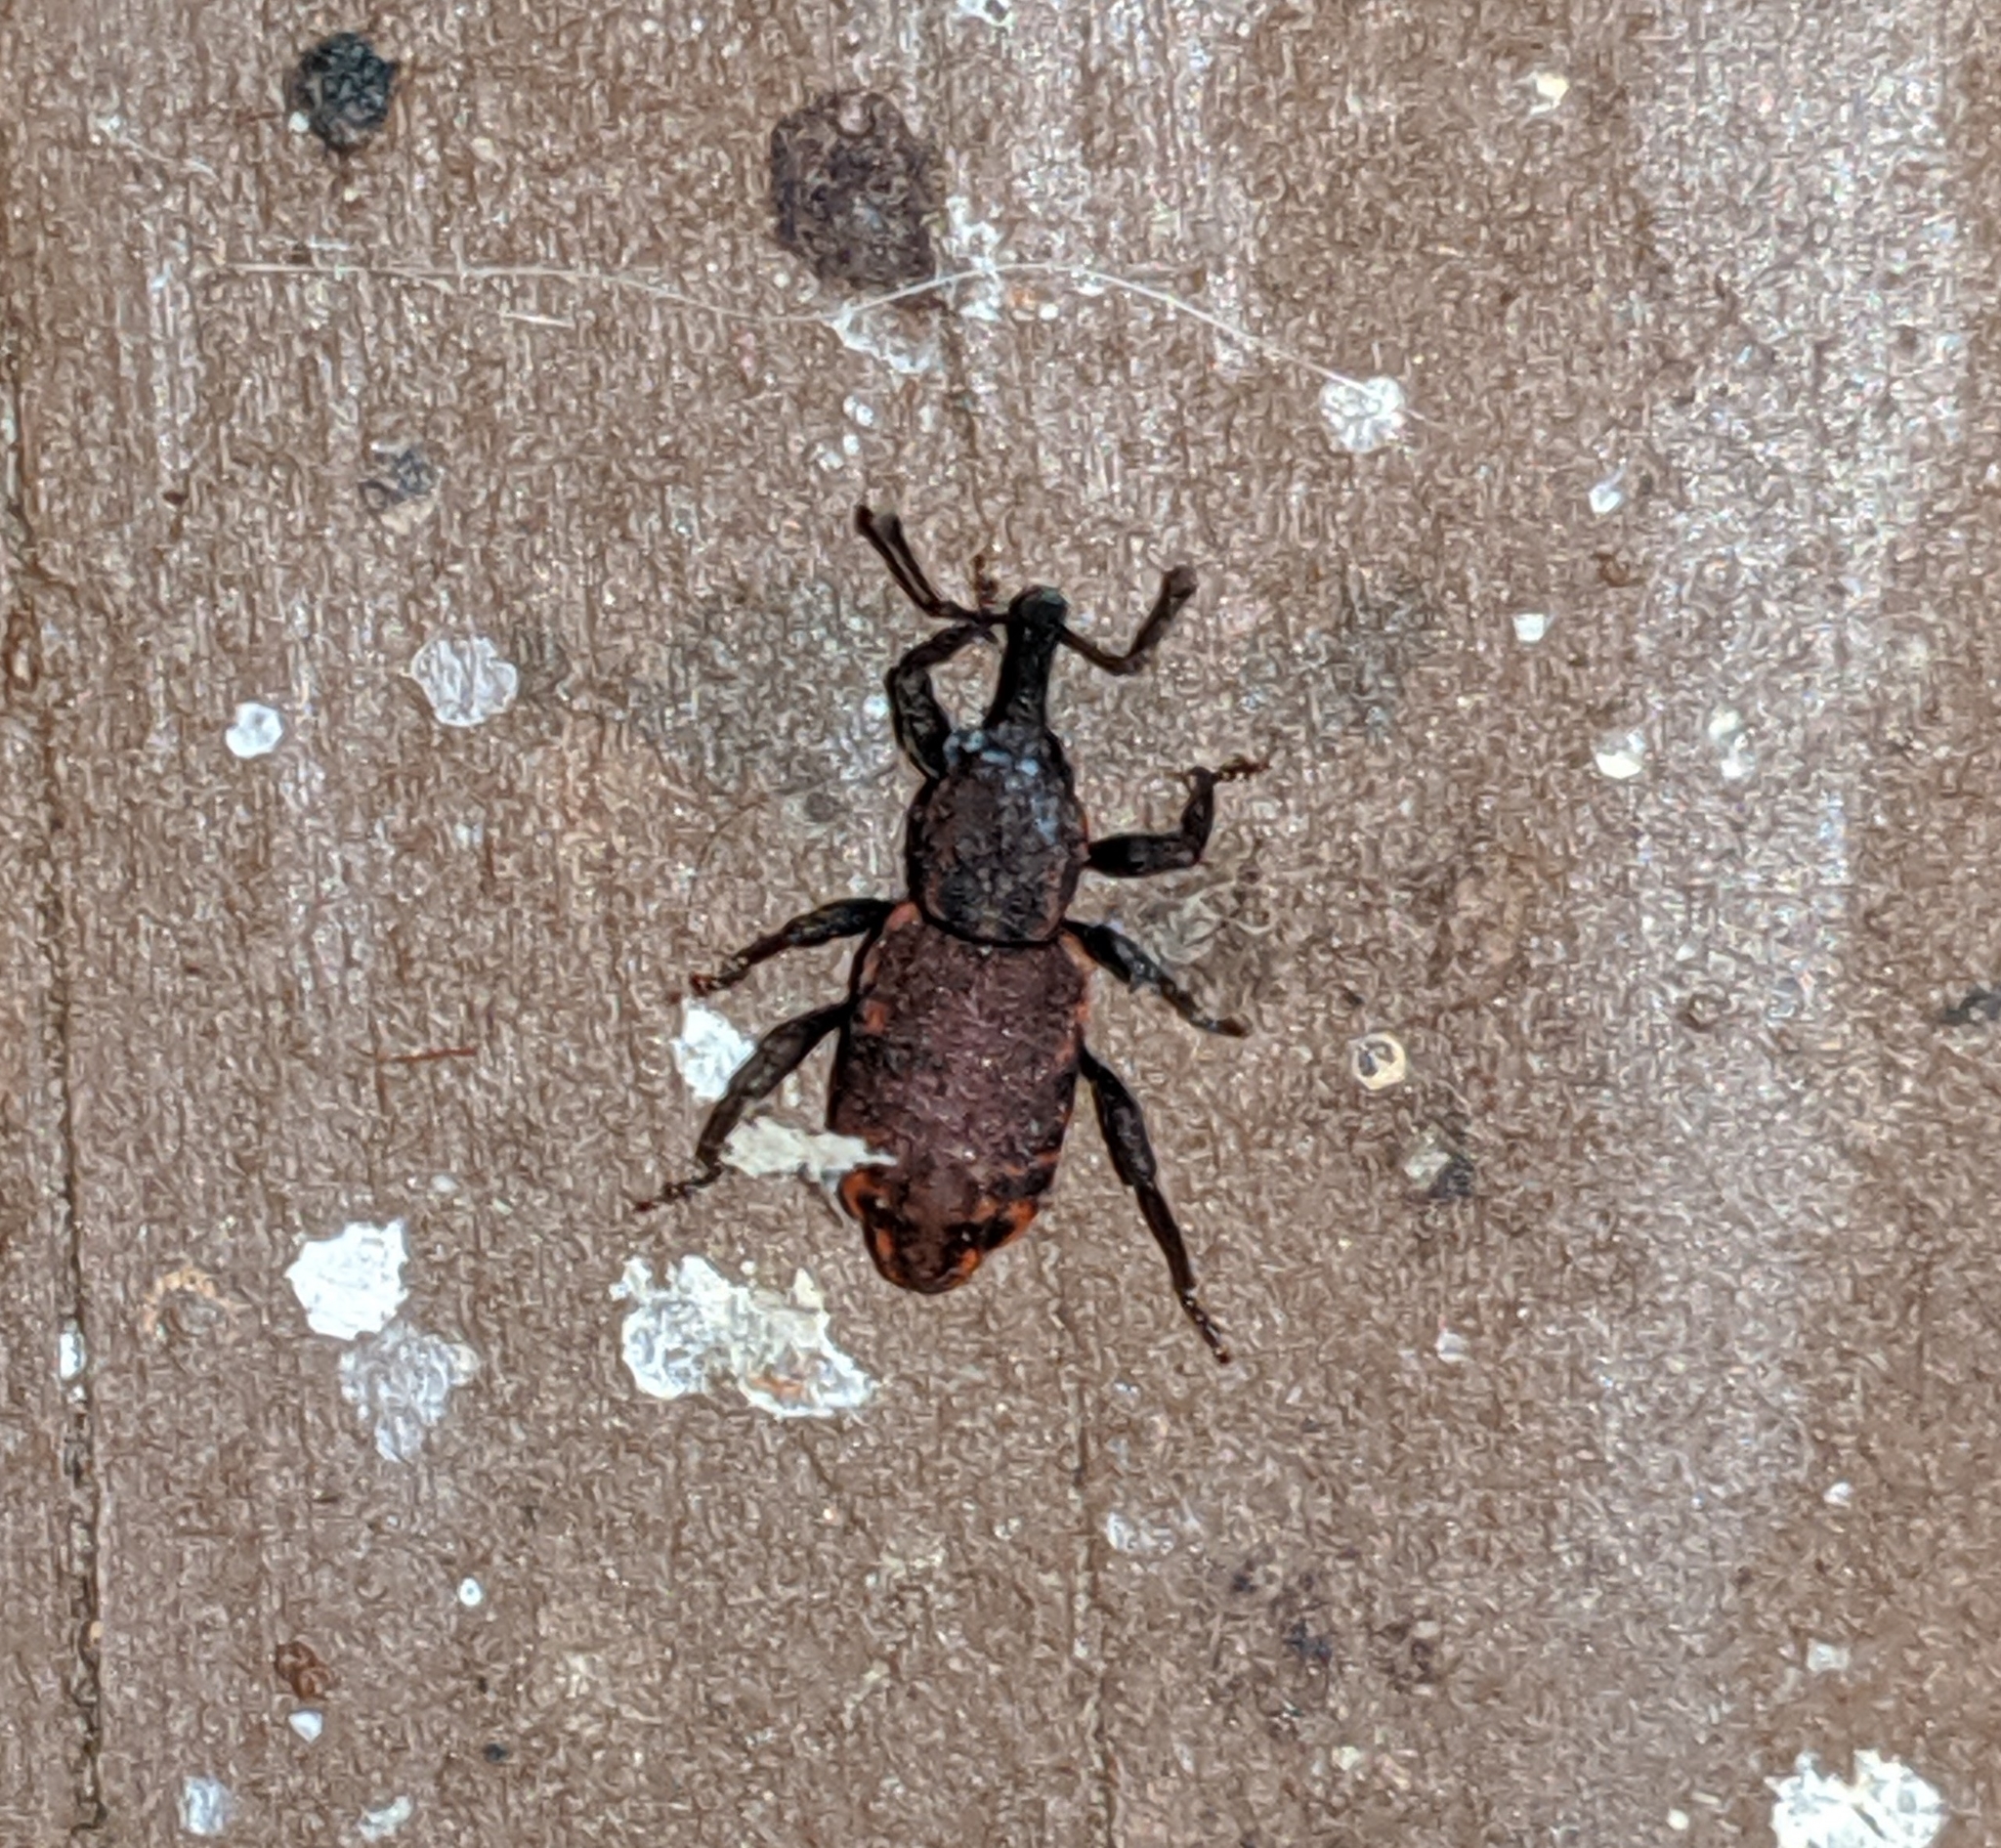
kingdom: Animalia
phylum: Arthropoda
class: Insecta
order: Coleoptera
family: Curculionidae
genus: Steremnius
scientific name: Steremnius carinatus
